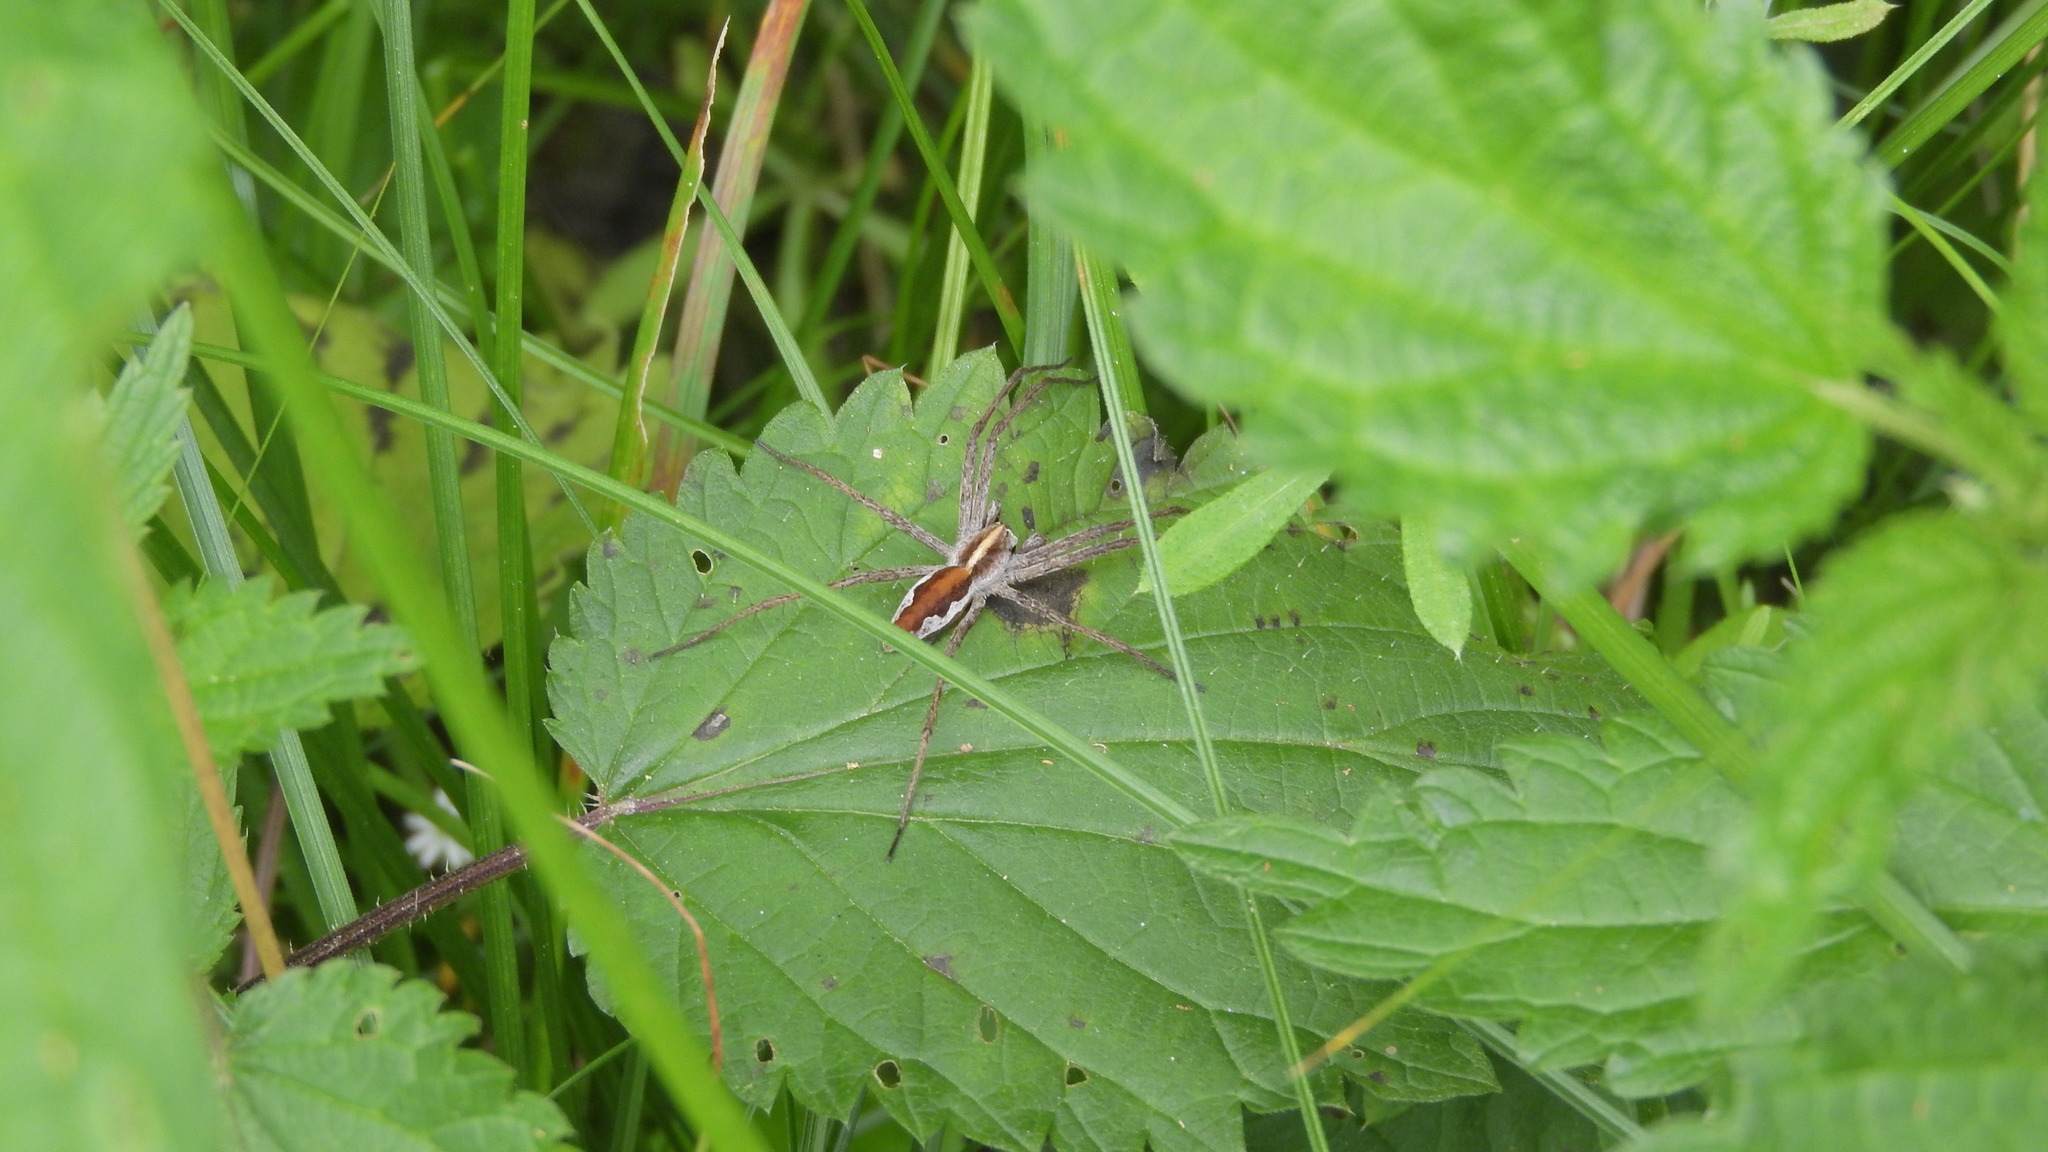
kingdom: Animalia
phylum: Arthropoda
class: Arachnida
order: Araneae
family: Pisauridae
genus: Pisaura
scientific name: Pisaura mirabilis
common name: Tent spider
